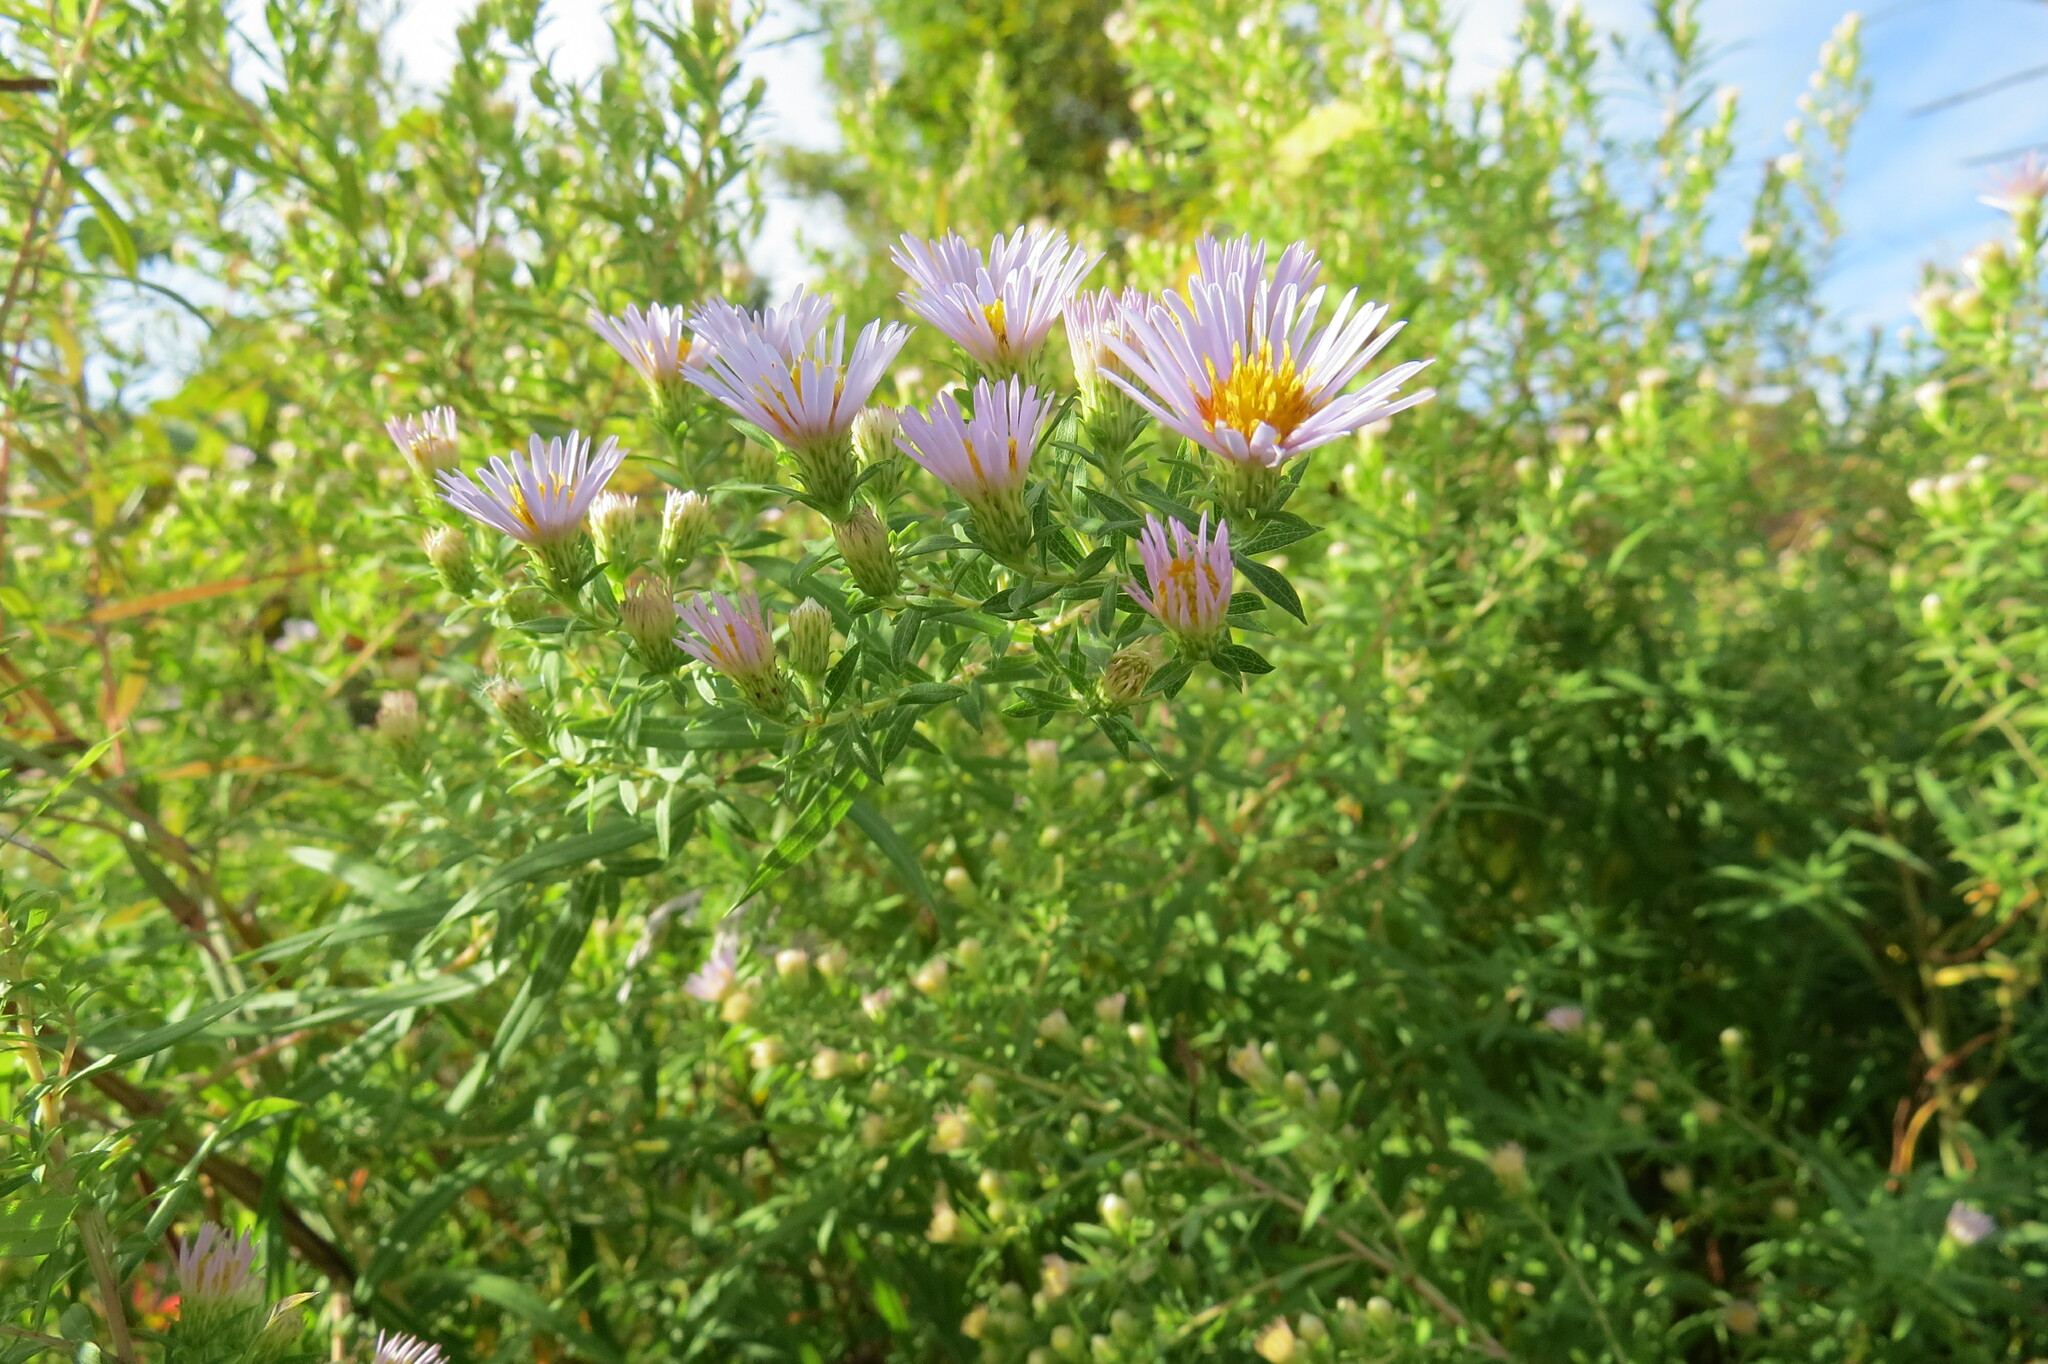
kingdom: Plantae
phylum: Tracheophyta
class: Magnoliopsida
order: Asterales
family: Asteraceae
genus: Symphyotrichum
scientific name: Symphyotrichum praealtum
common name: Willow aster
